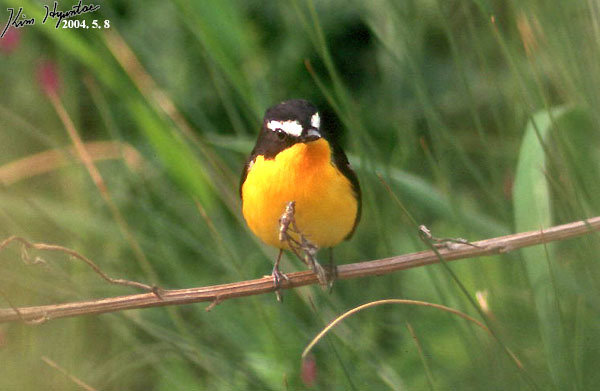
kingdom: Animalia
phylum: Chordata
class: Aves
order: Passeriformes
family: Muscicapidae
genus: Ficedula
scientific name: Ficedula zanthopygia
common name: Yellow-rumped flycatcher
